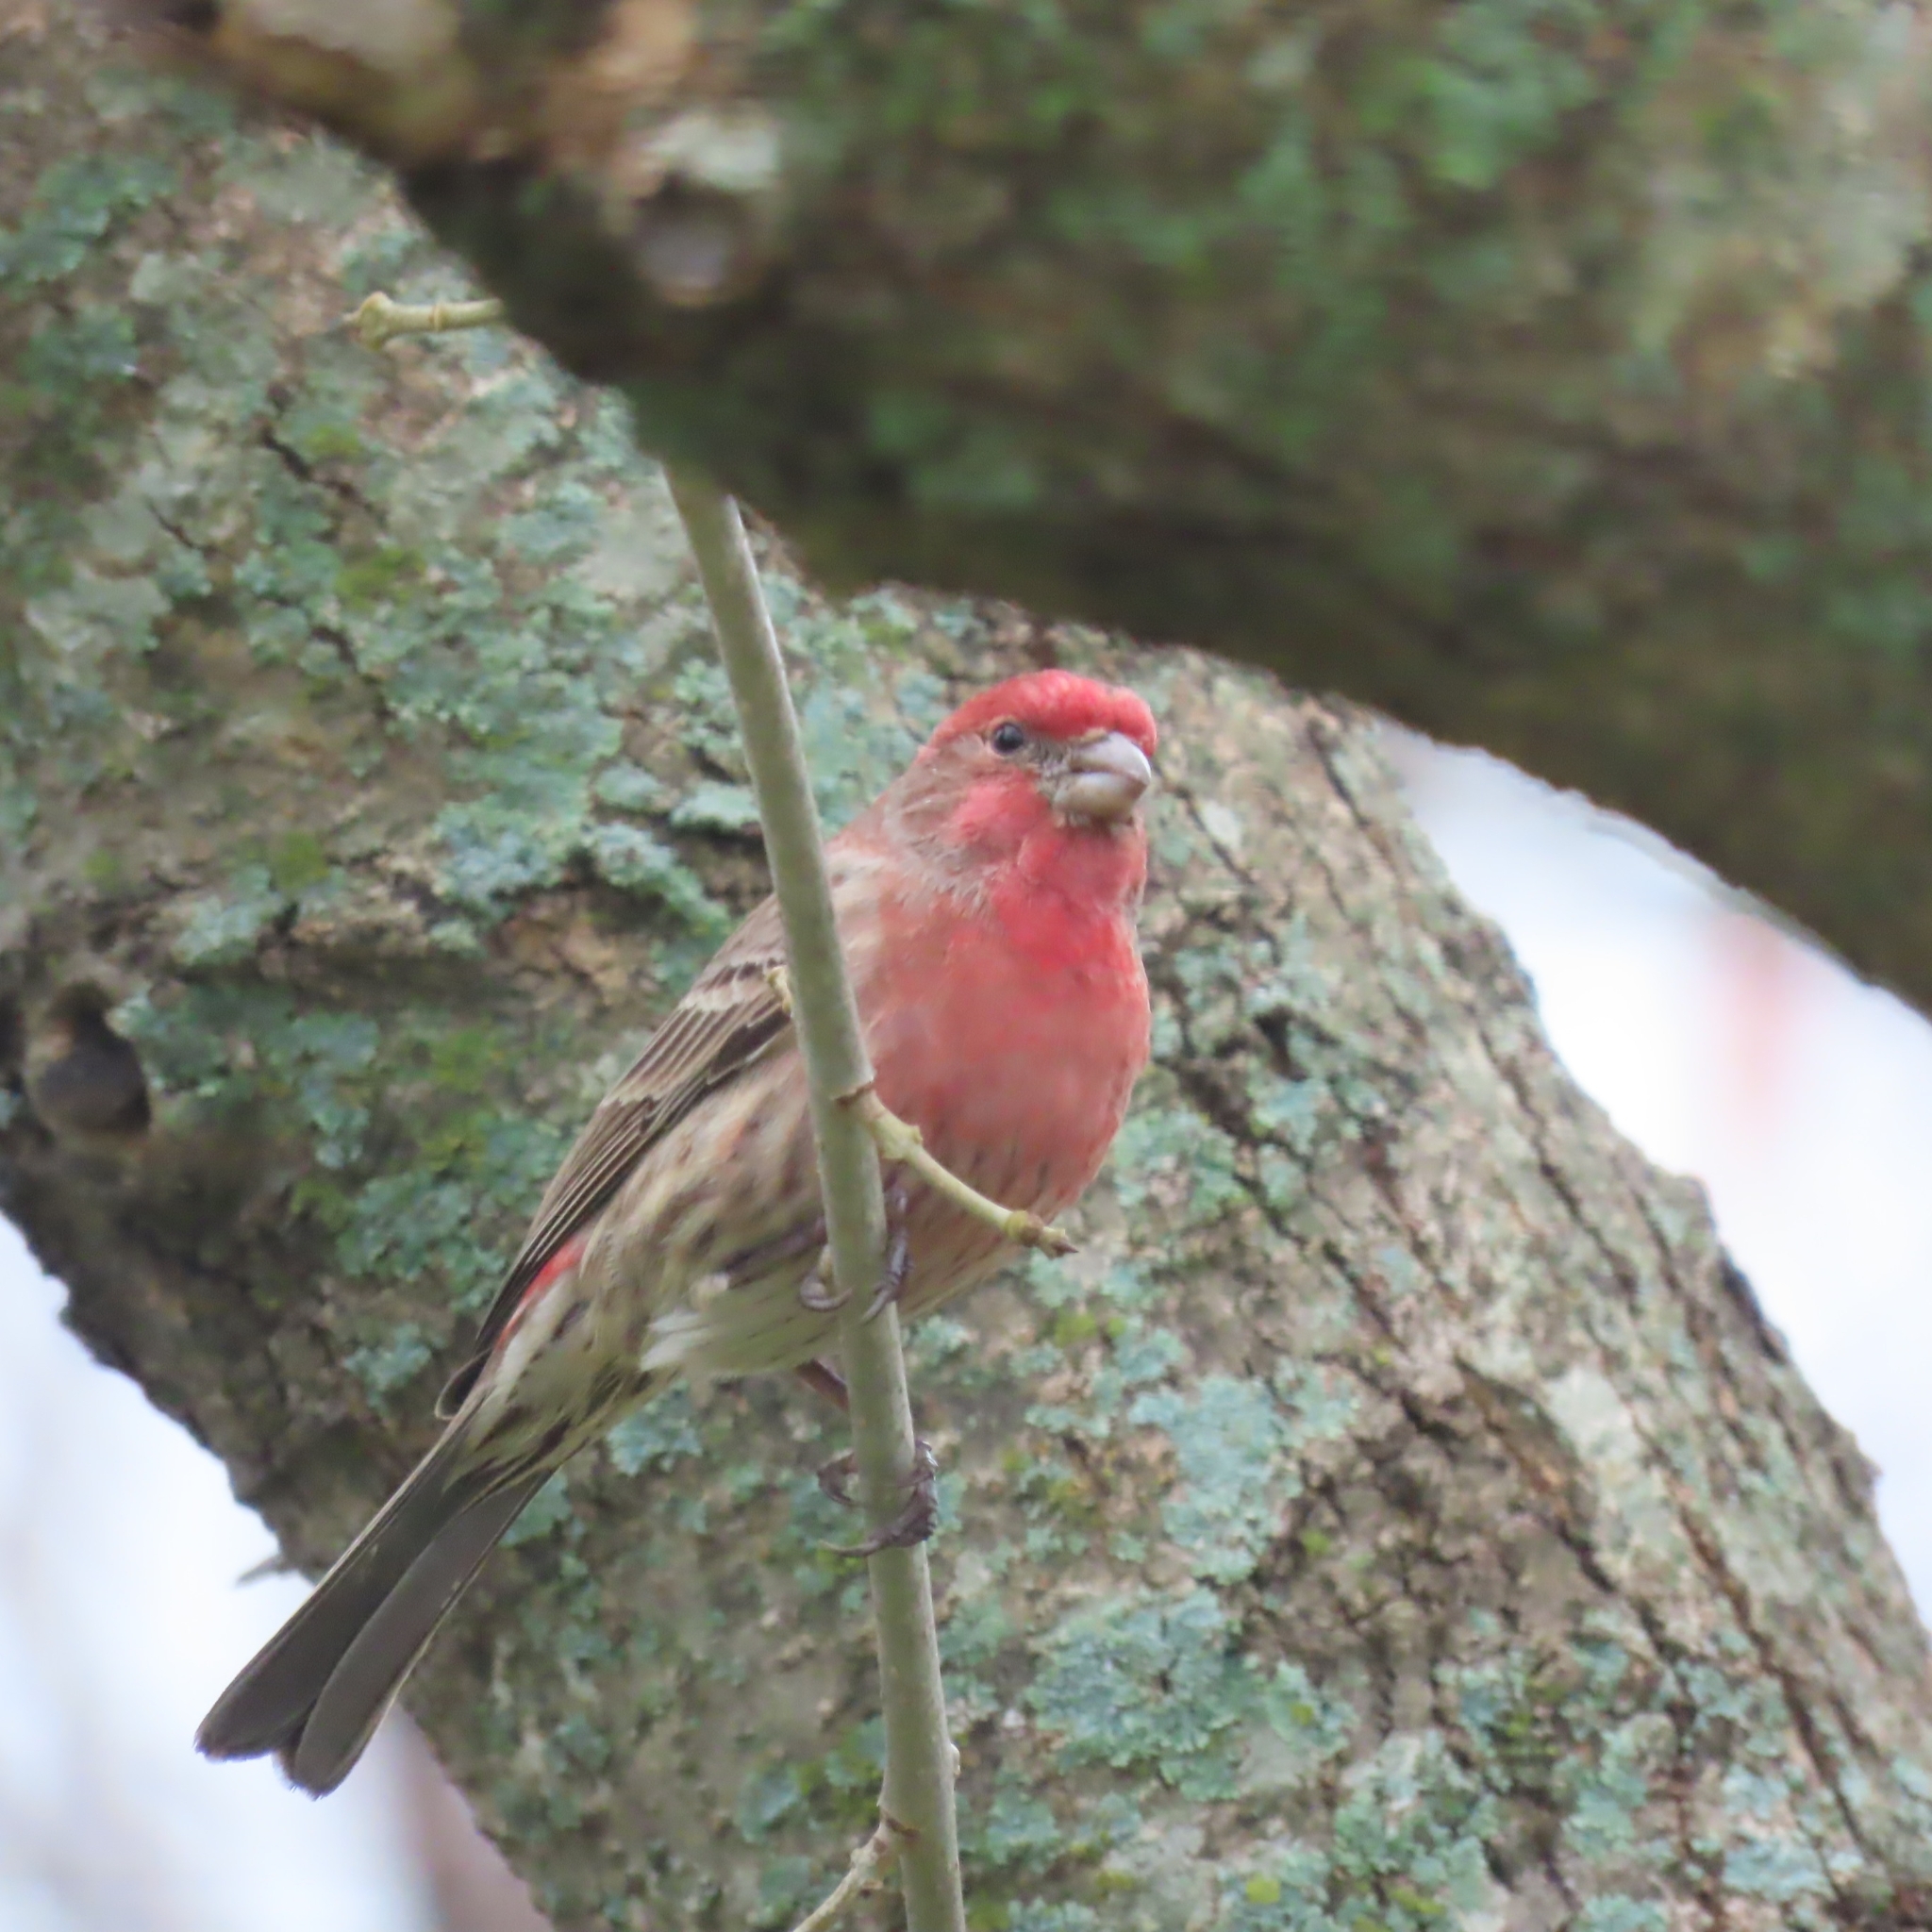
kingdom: Animalia
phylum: Chordata
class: Aves
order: Passeriformes
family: Fringillidae
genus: Haemorhous
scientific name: Haemorhous mexicanus
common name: House finch
